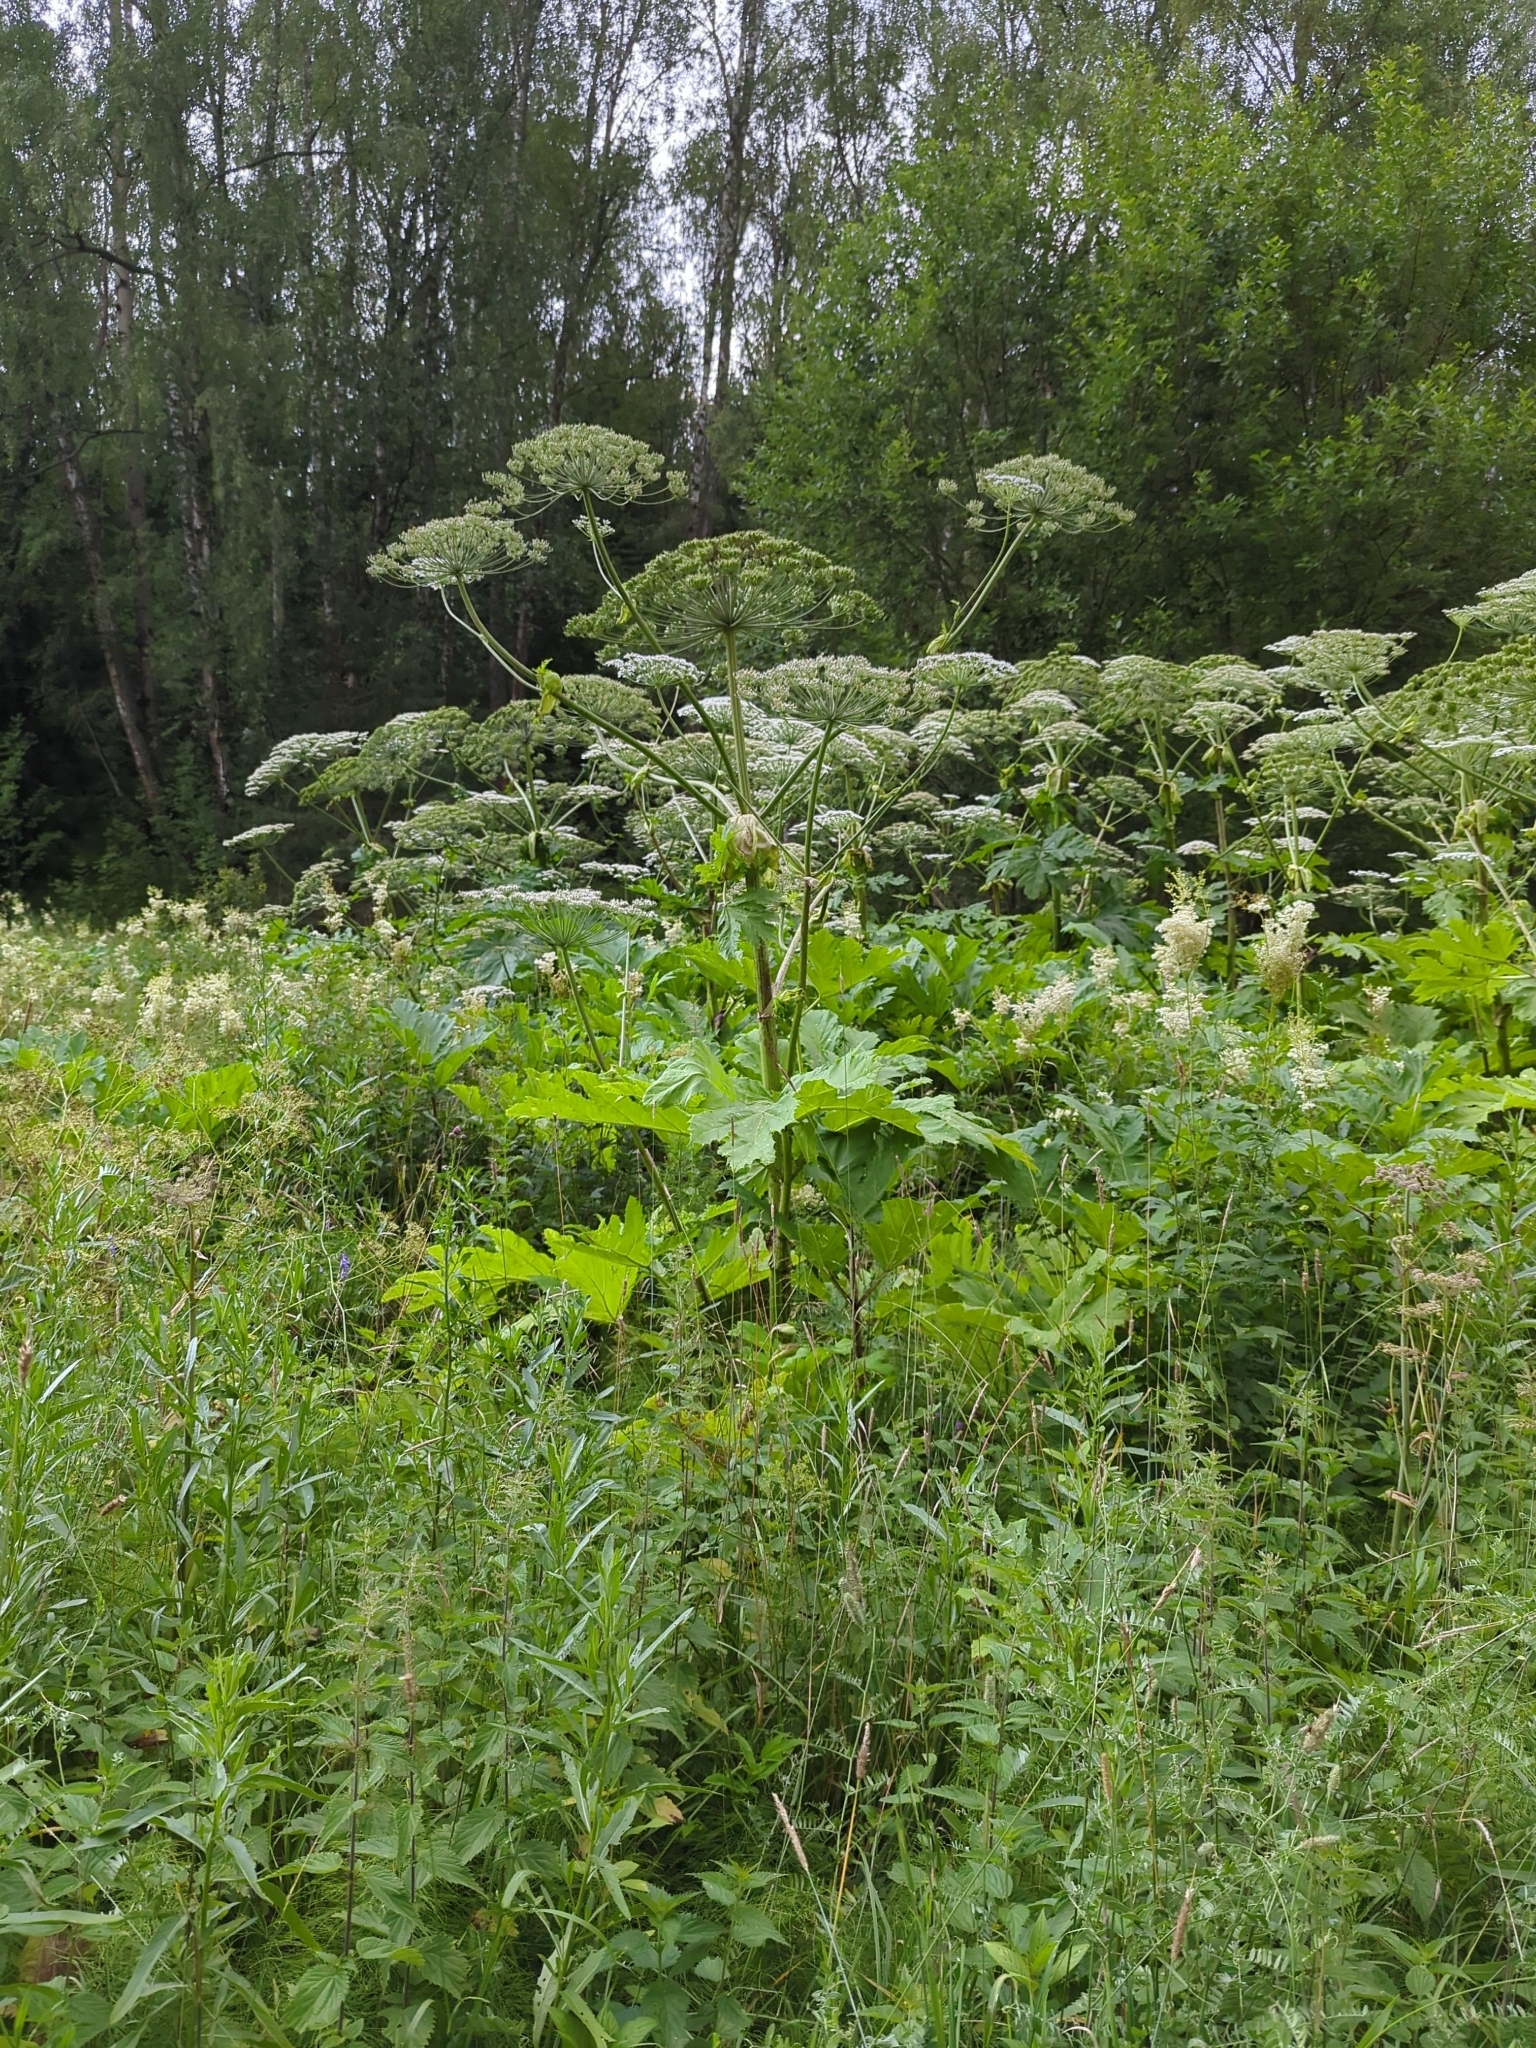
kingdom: Plantae
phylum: Tracheophyta
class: Magnoliopsida
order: Apiales
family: Apiaceae
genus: Heracleum
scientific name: Heracleum sosnowskyi
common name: Sosnowsky's hogweed
